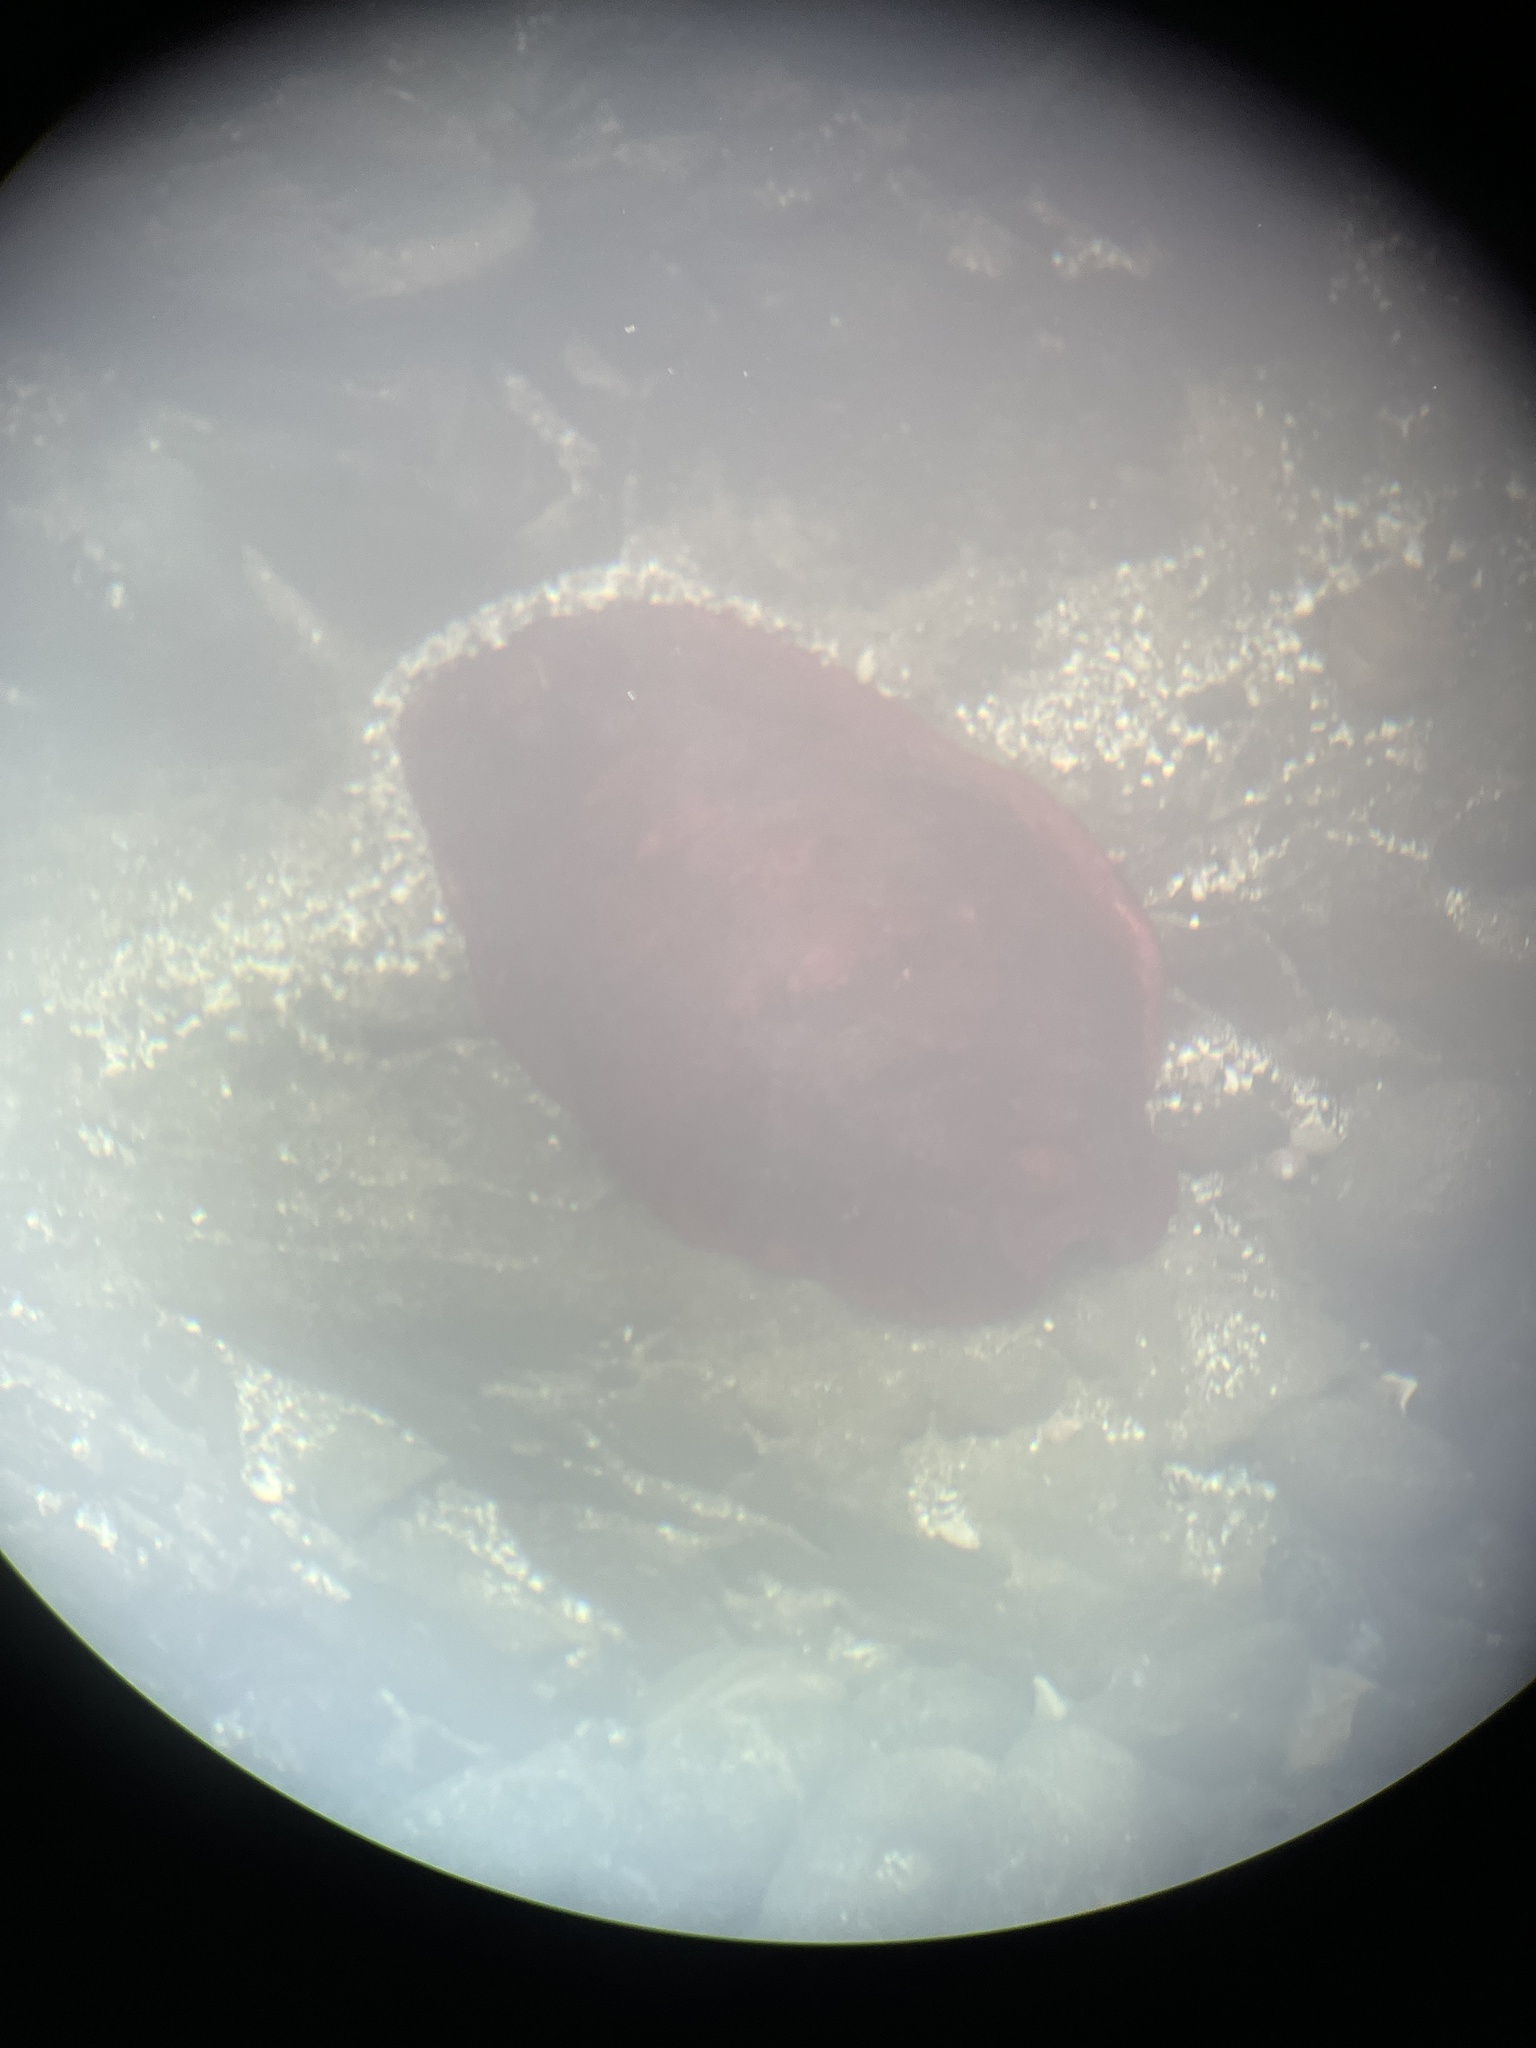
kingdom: Animalia
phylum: Mollusca
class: Polyplacophora
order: Chitonida
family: Acanthochitonidae
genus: Cryptochiton
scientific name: Cryptochiton stelleri
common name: Giant pacific chiton
